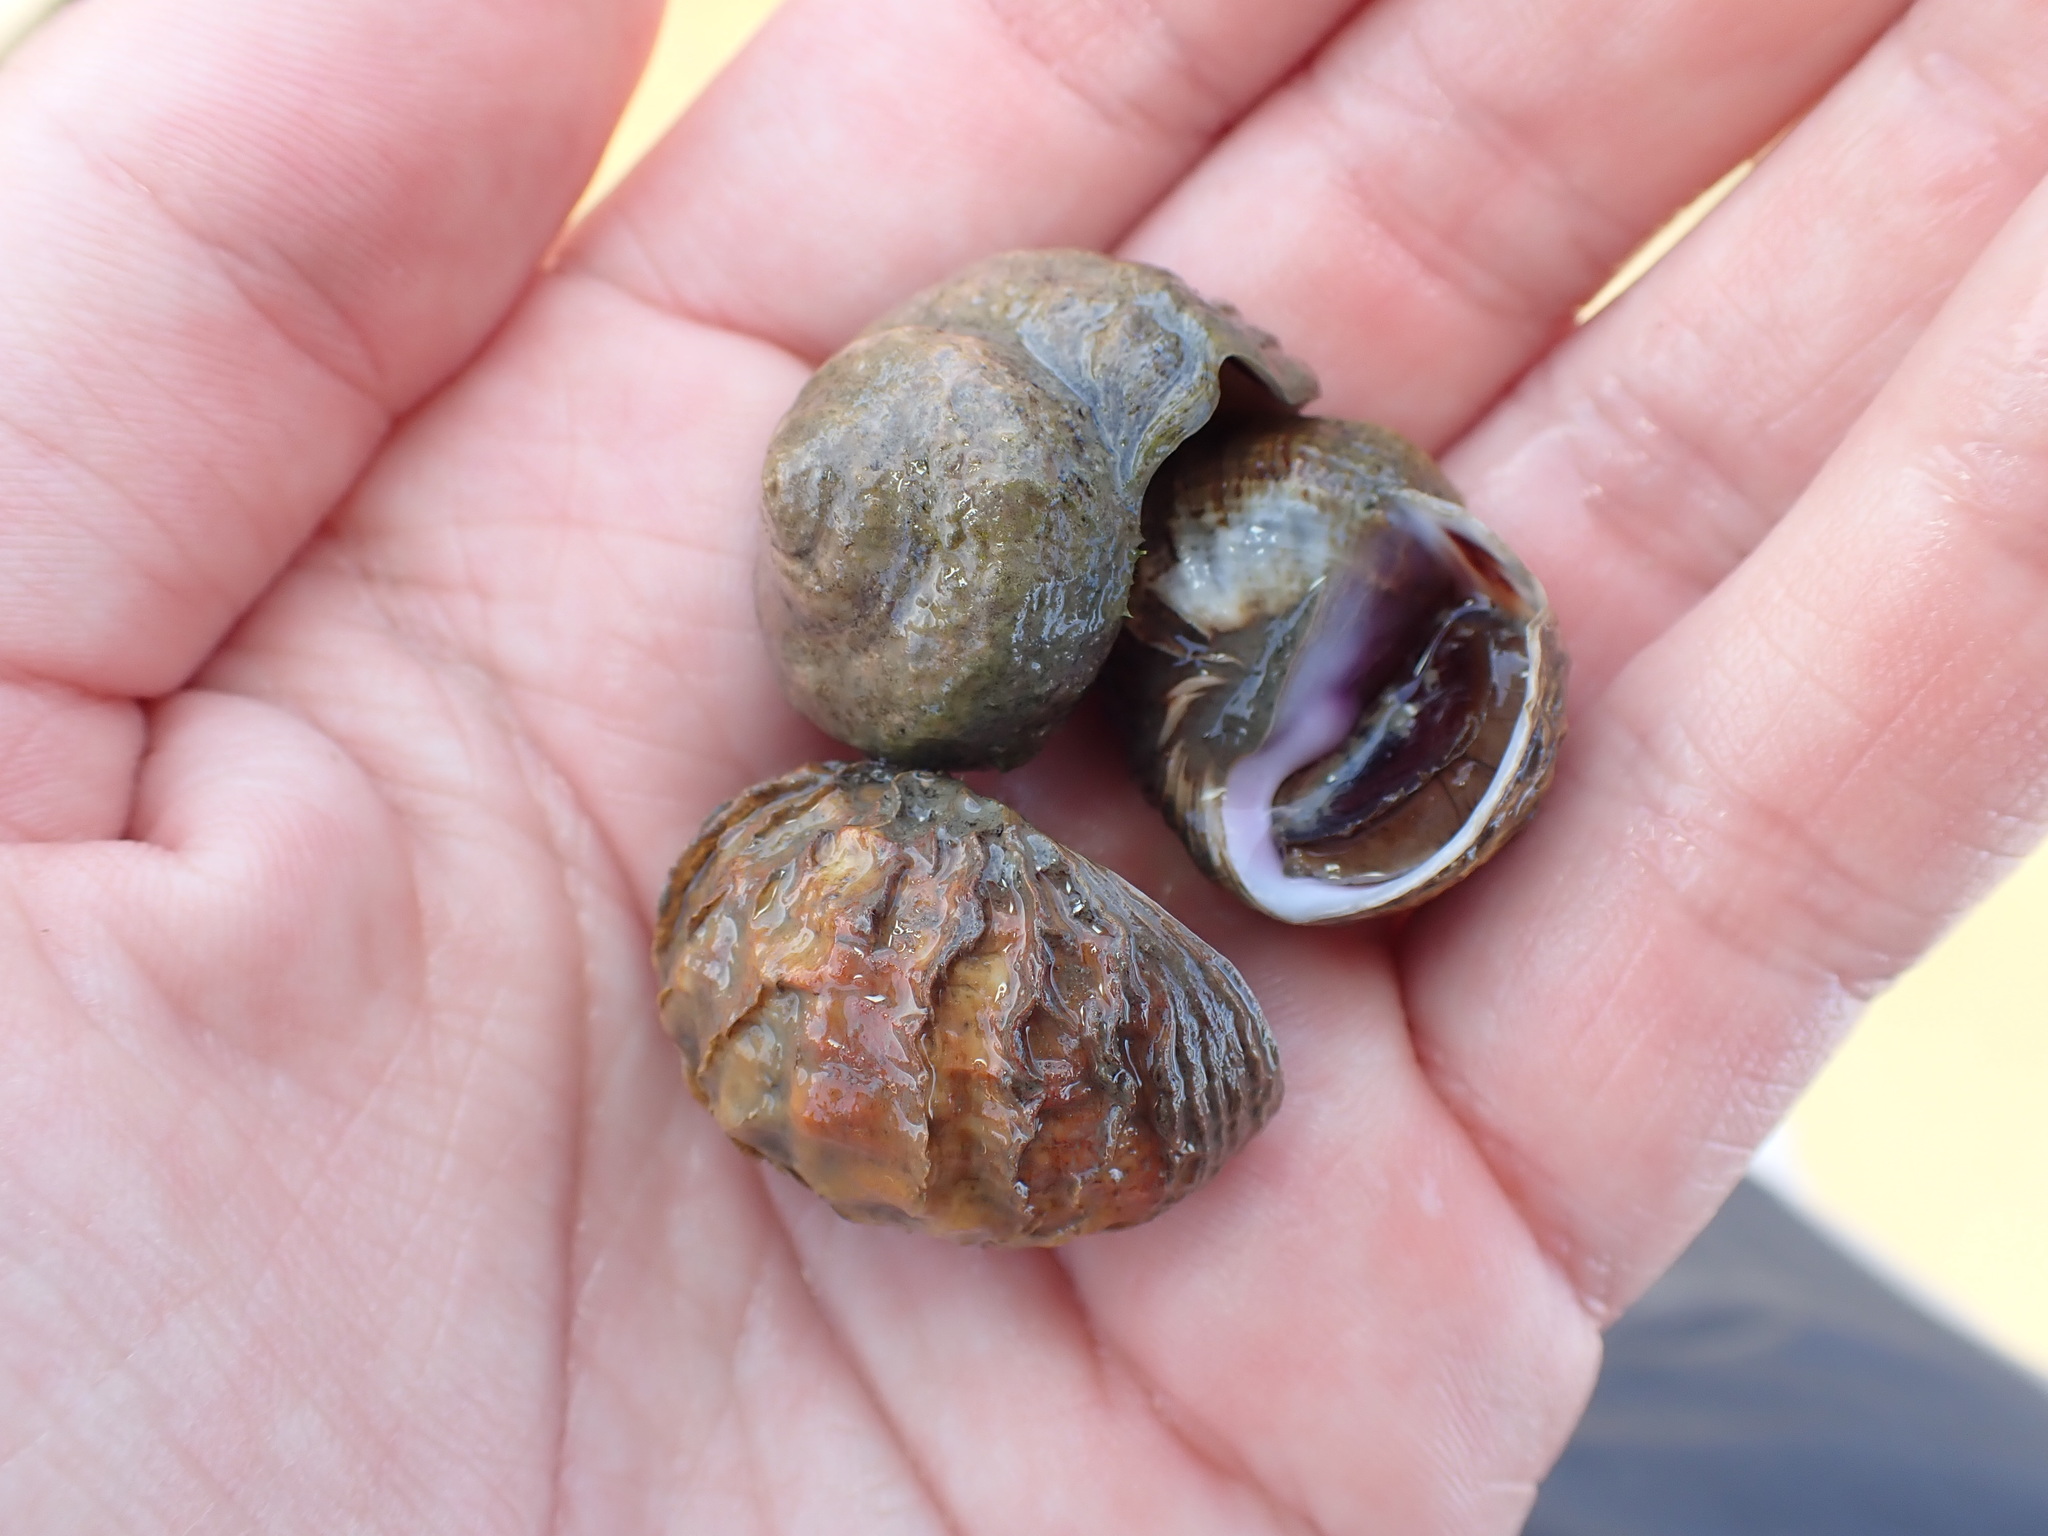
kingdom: Animalia
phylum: Mollusca
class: Gastropoda
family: Amphibolidae
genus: Amphibola
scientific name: Amphibola crenata
